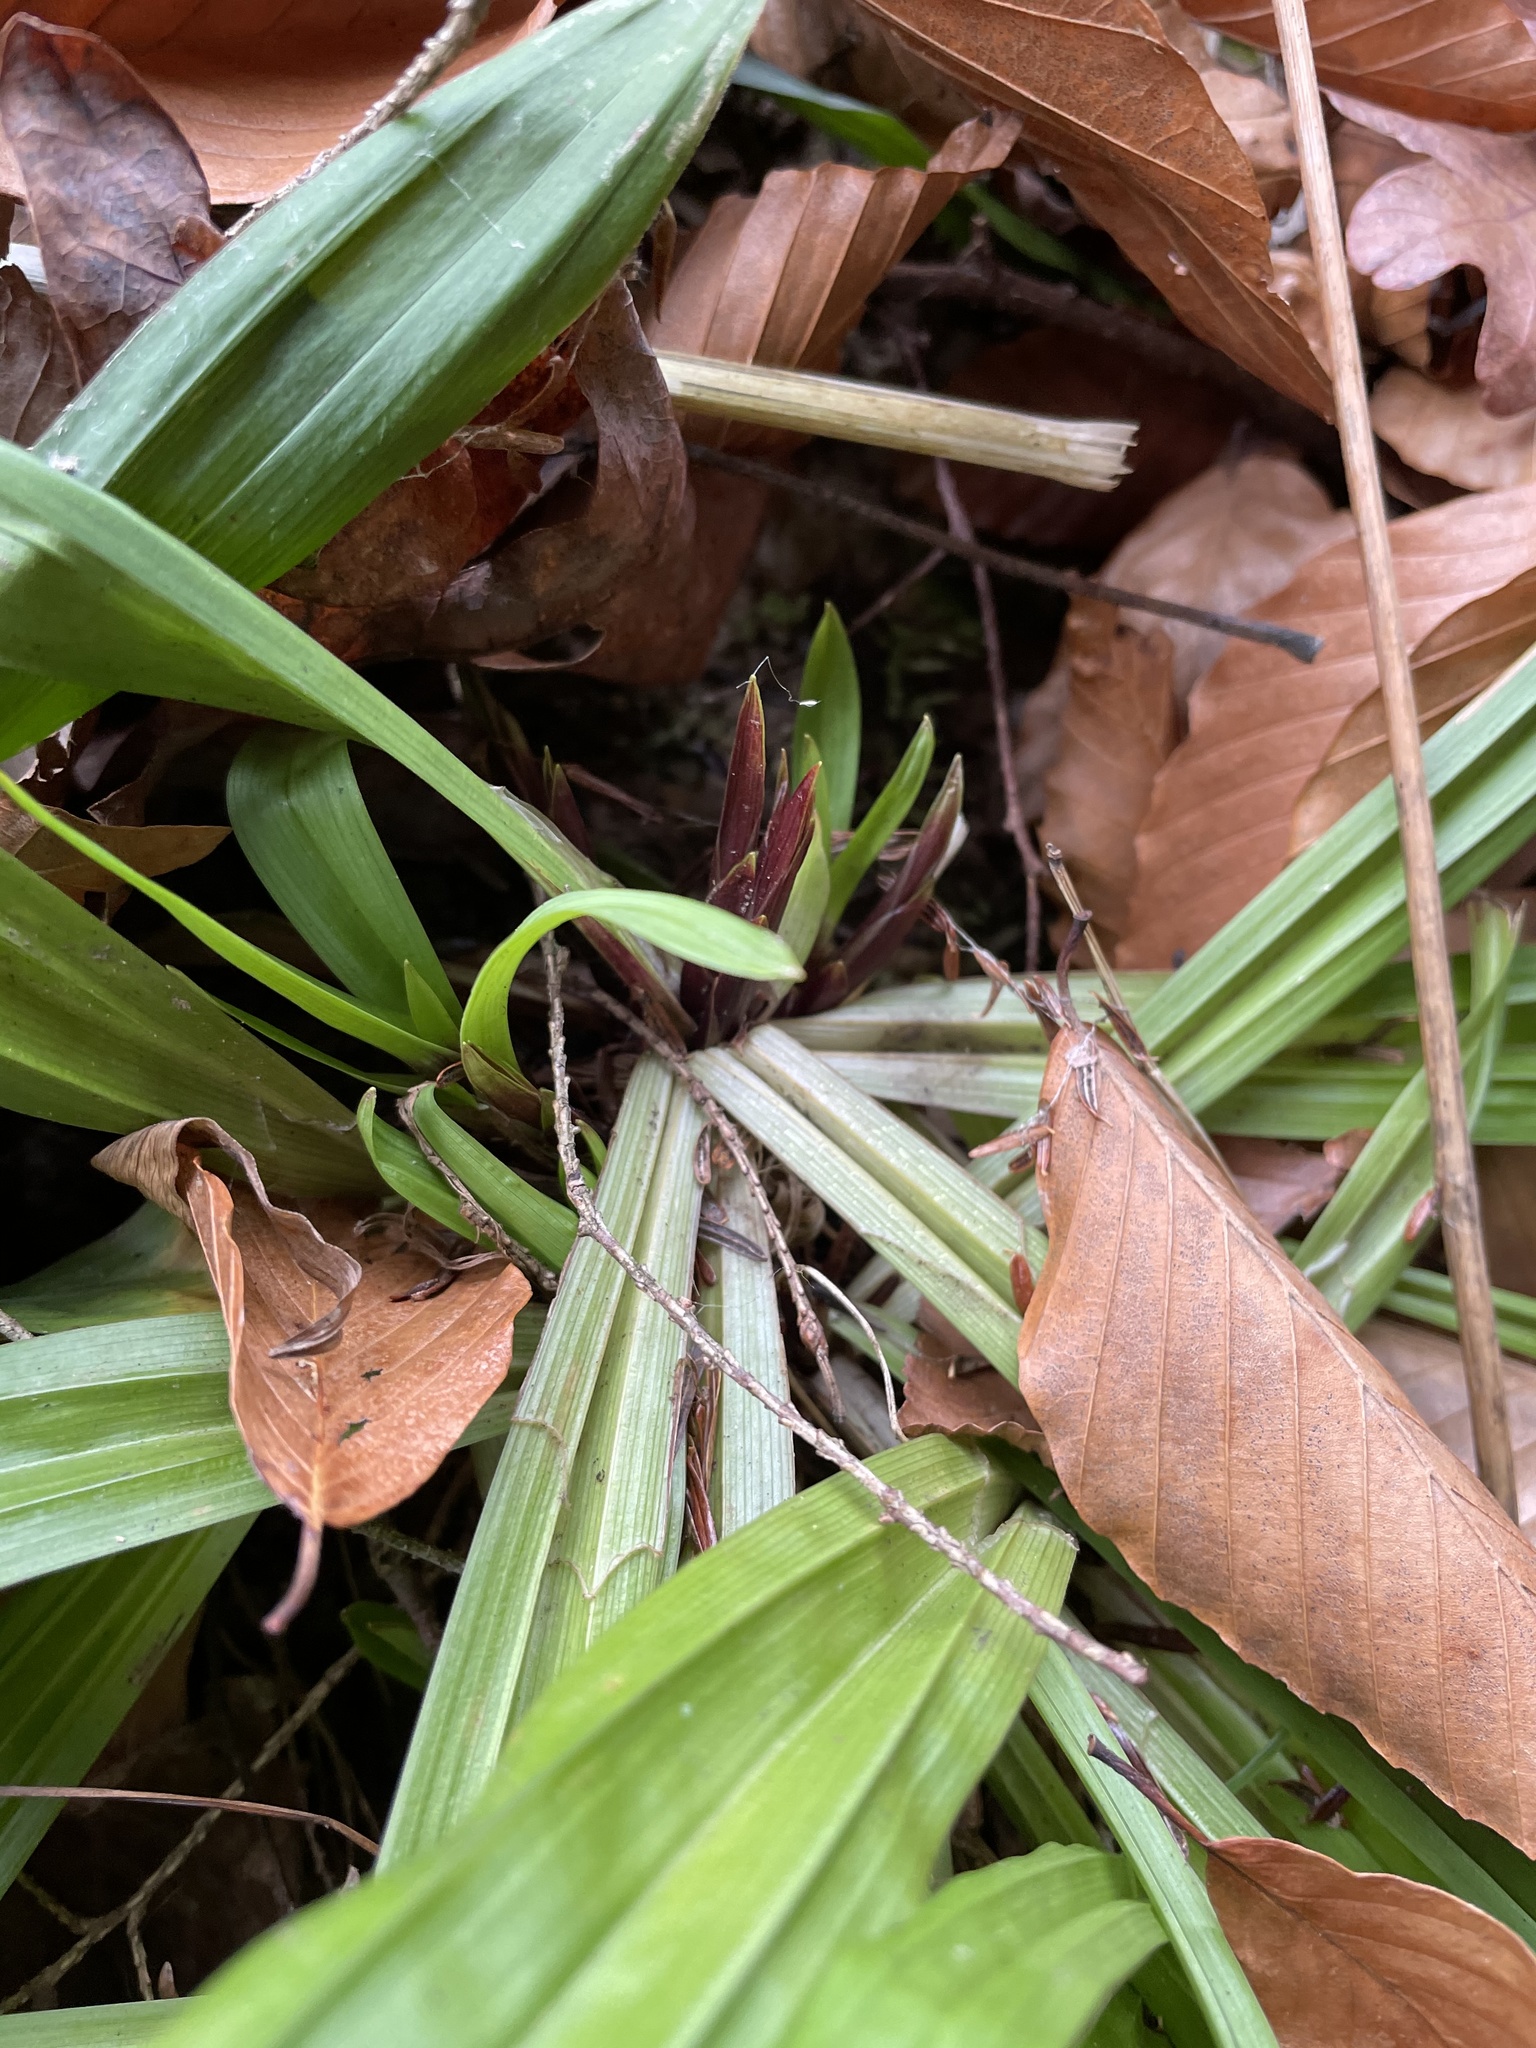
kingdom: Plantae
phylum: Tracheophyta
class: Liliopsida
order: Poales
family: Cyperaceae
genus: Carex
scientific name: Carex plantaginea
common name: Plantain-leaved sedge
